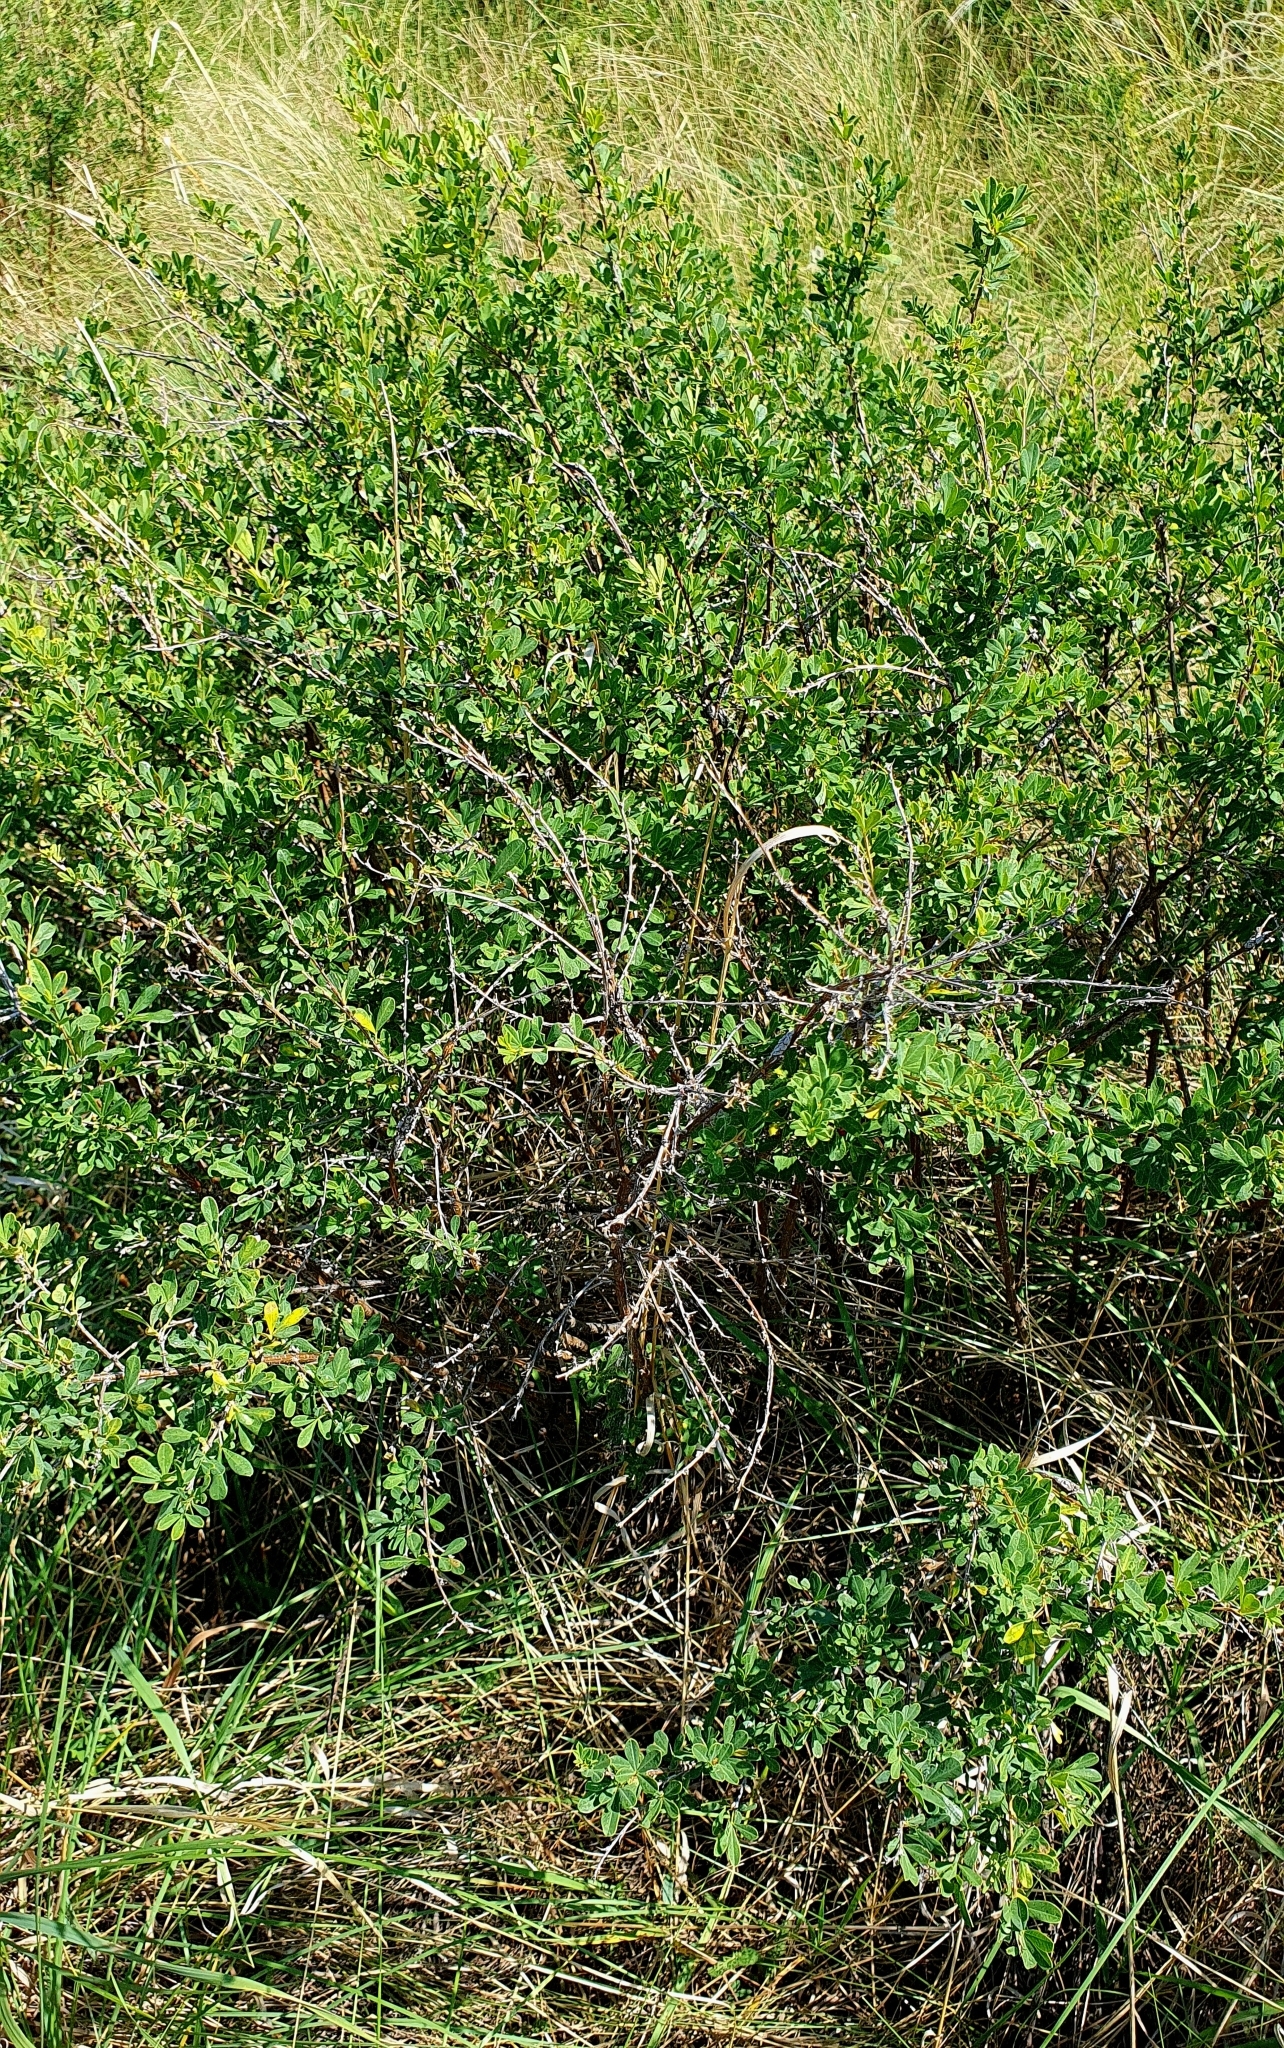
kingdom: Plantae
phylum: Tracheophyta
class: Magnoliopsida
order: Fabales
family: Fabaceae
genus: Caragana
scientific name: Caragana frutex
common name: Russian peashrub
